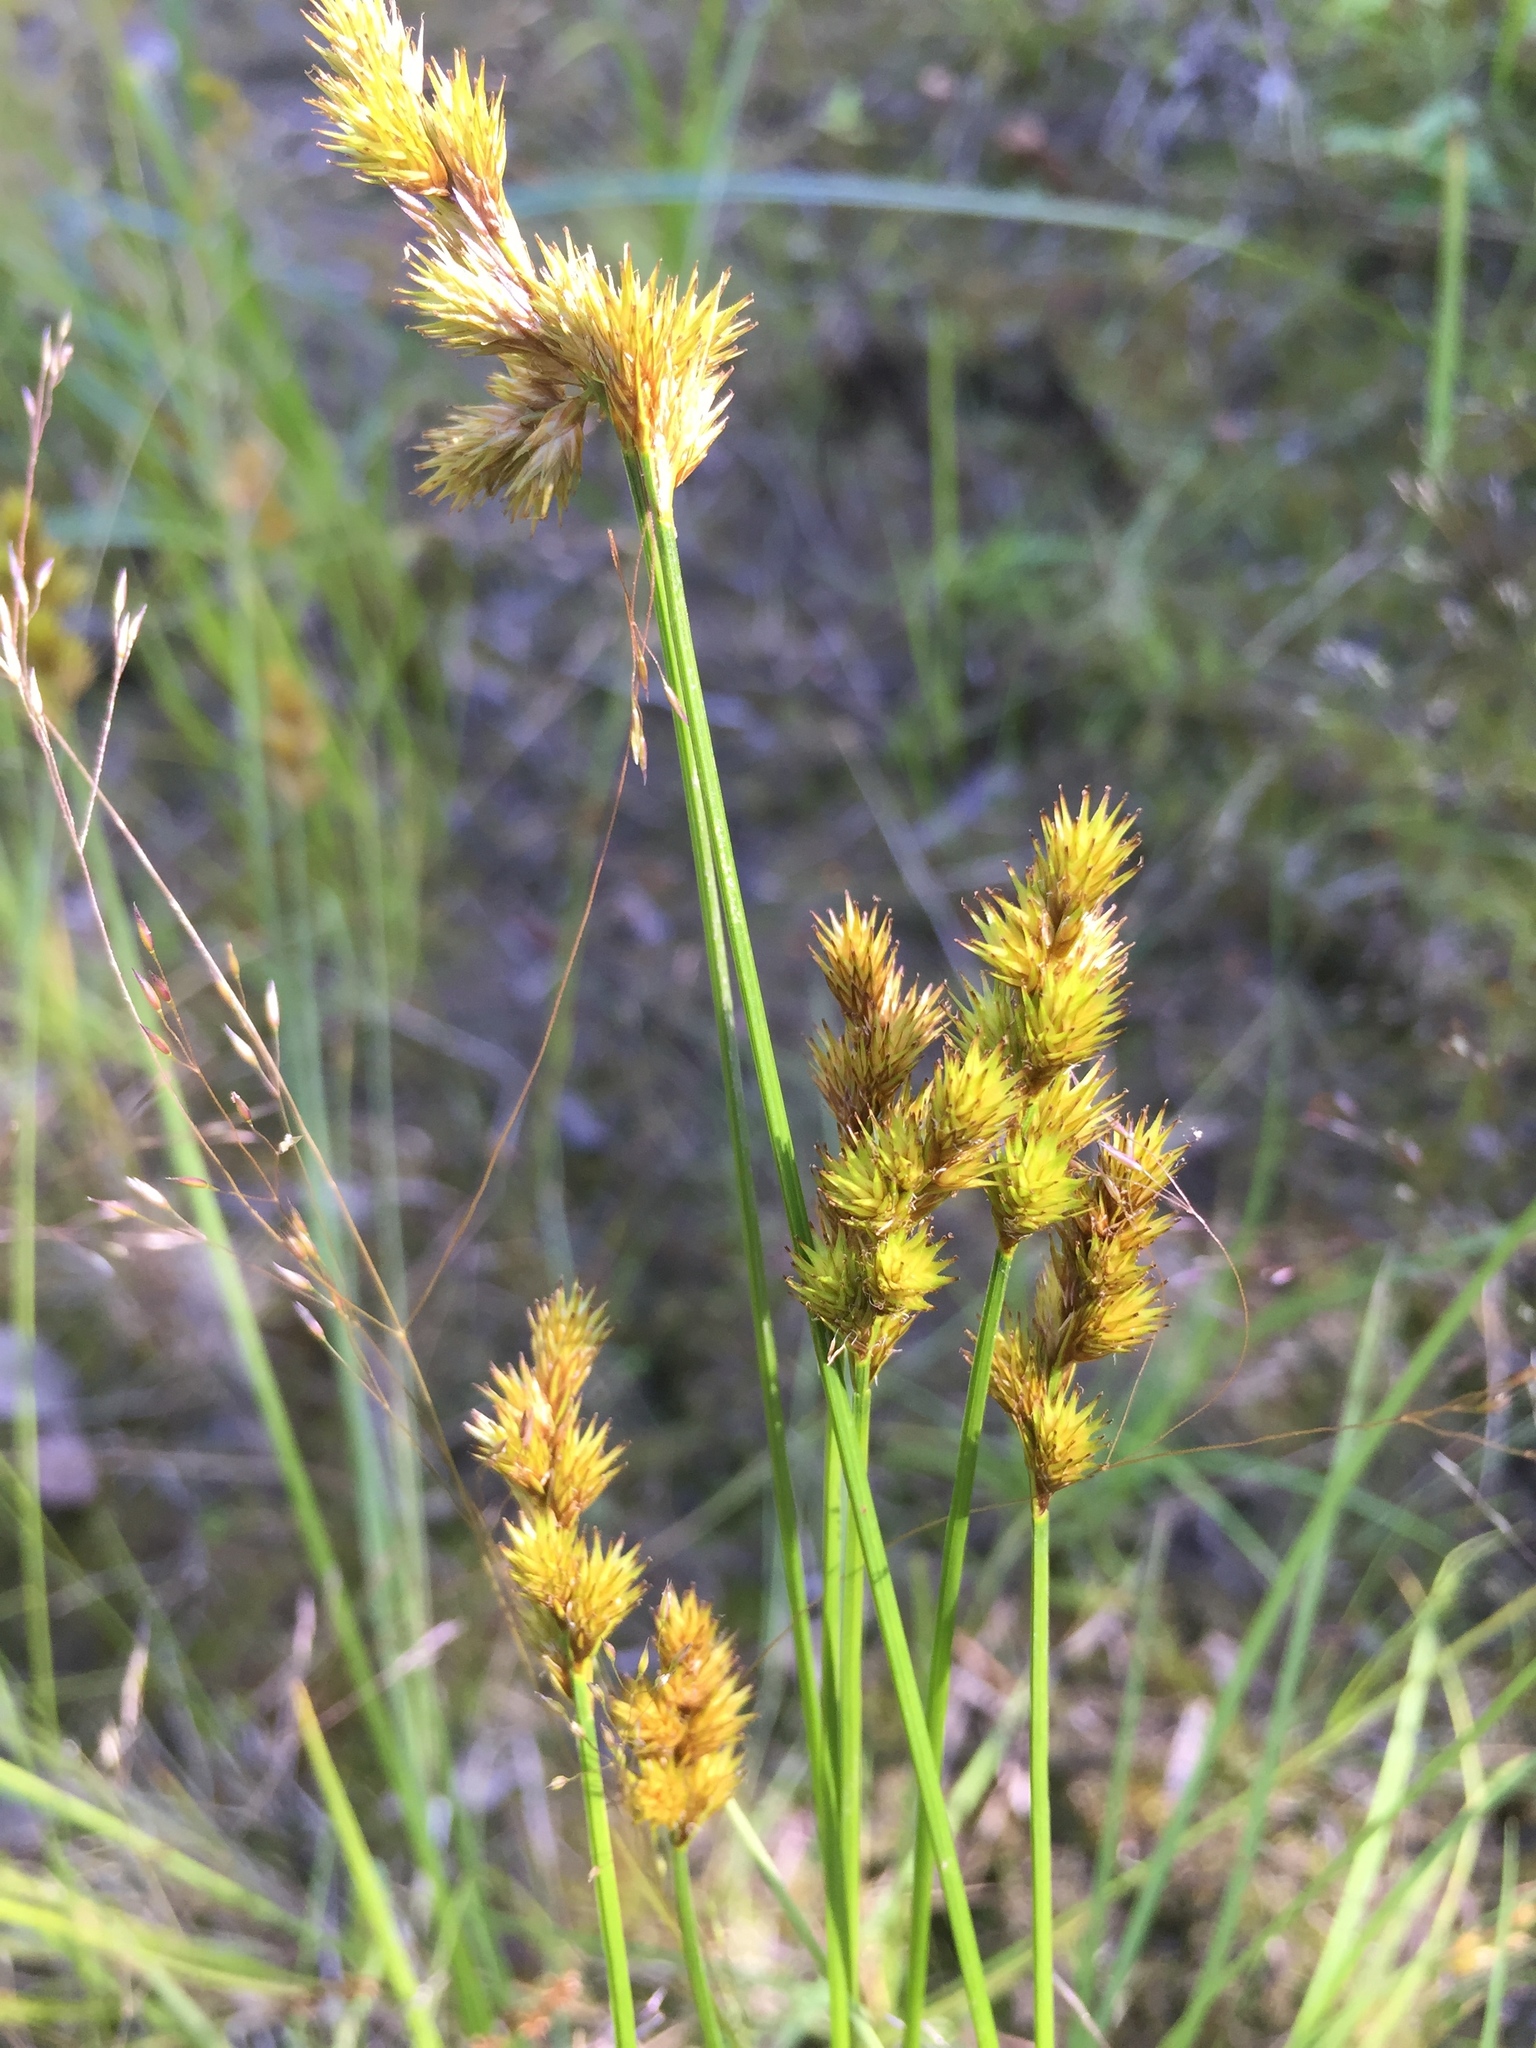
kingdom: Plantae
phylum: Tracheophyta
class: Liliopsida
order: Poales
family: Cyperaceae
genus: Carex
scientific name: Carex crawfordii
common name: Crawford's sedge
